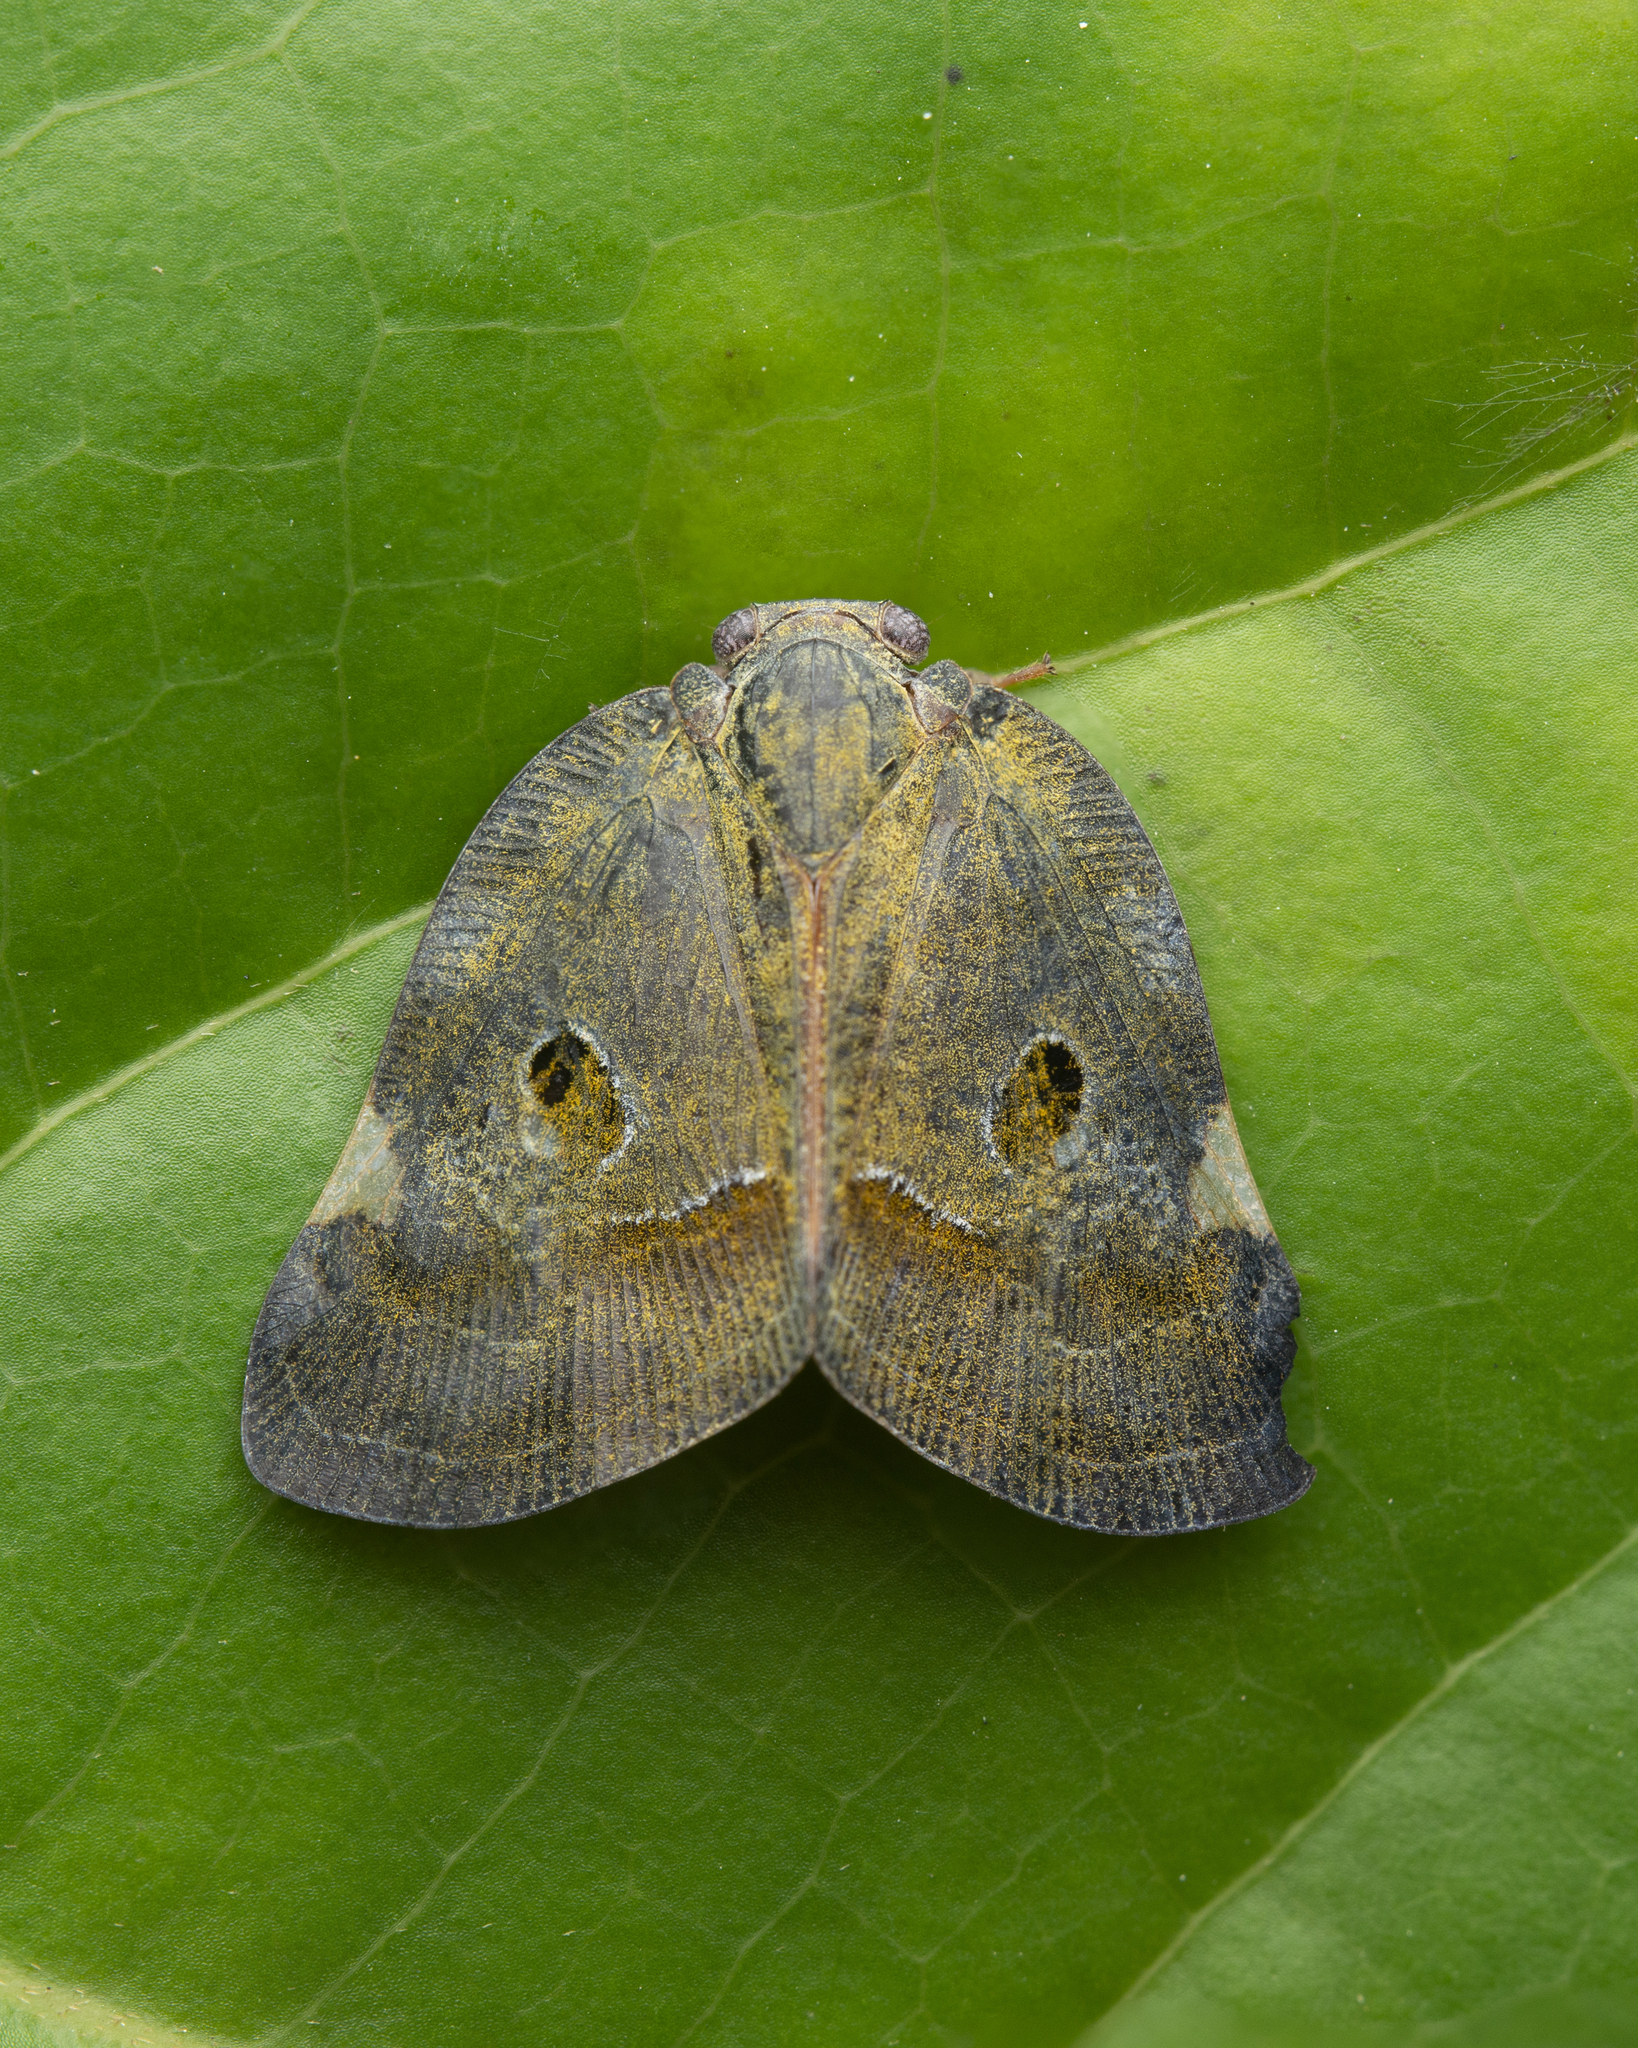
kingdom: Animalia
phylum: Arthropoda
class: Insecta
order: Hemiptera
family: Ricaniidae
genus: Ricania
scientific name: Ricania guttata
